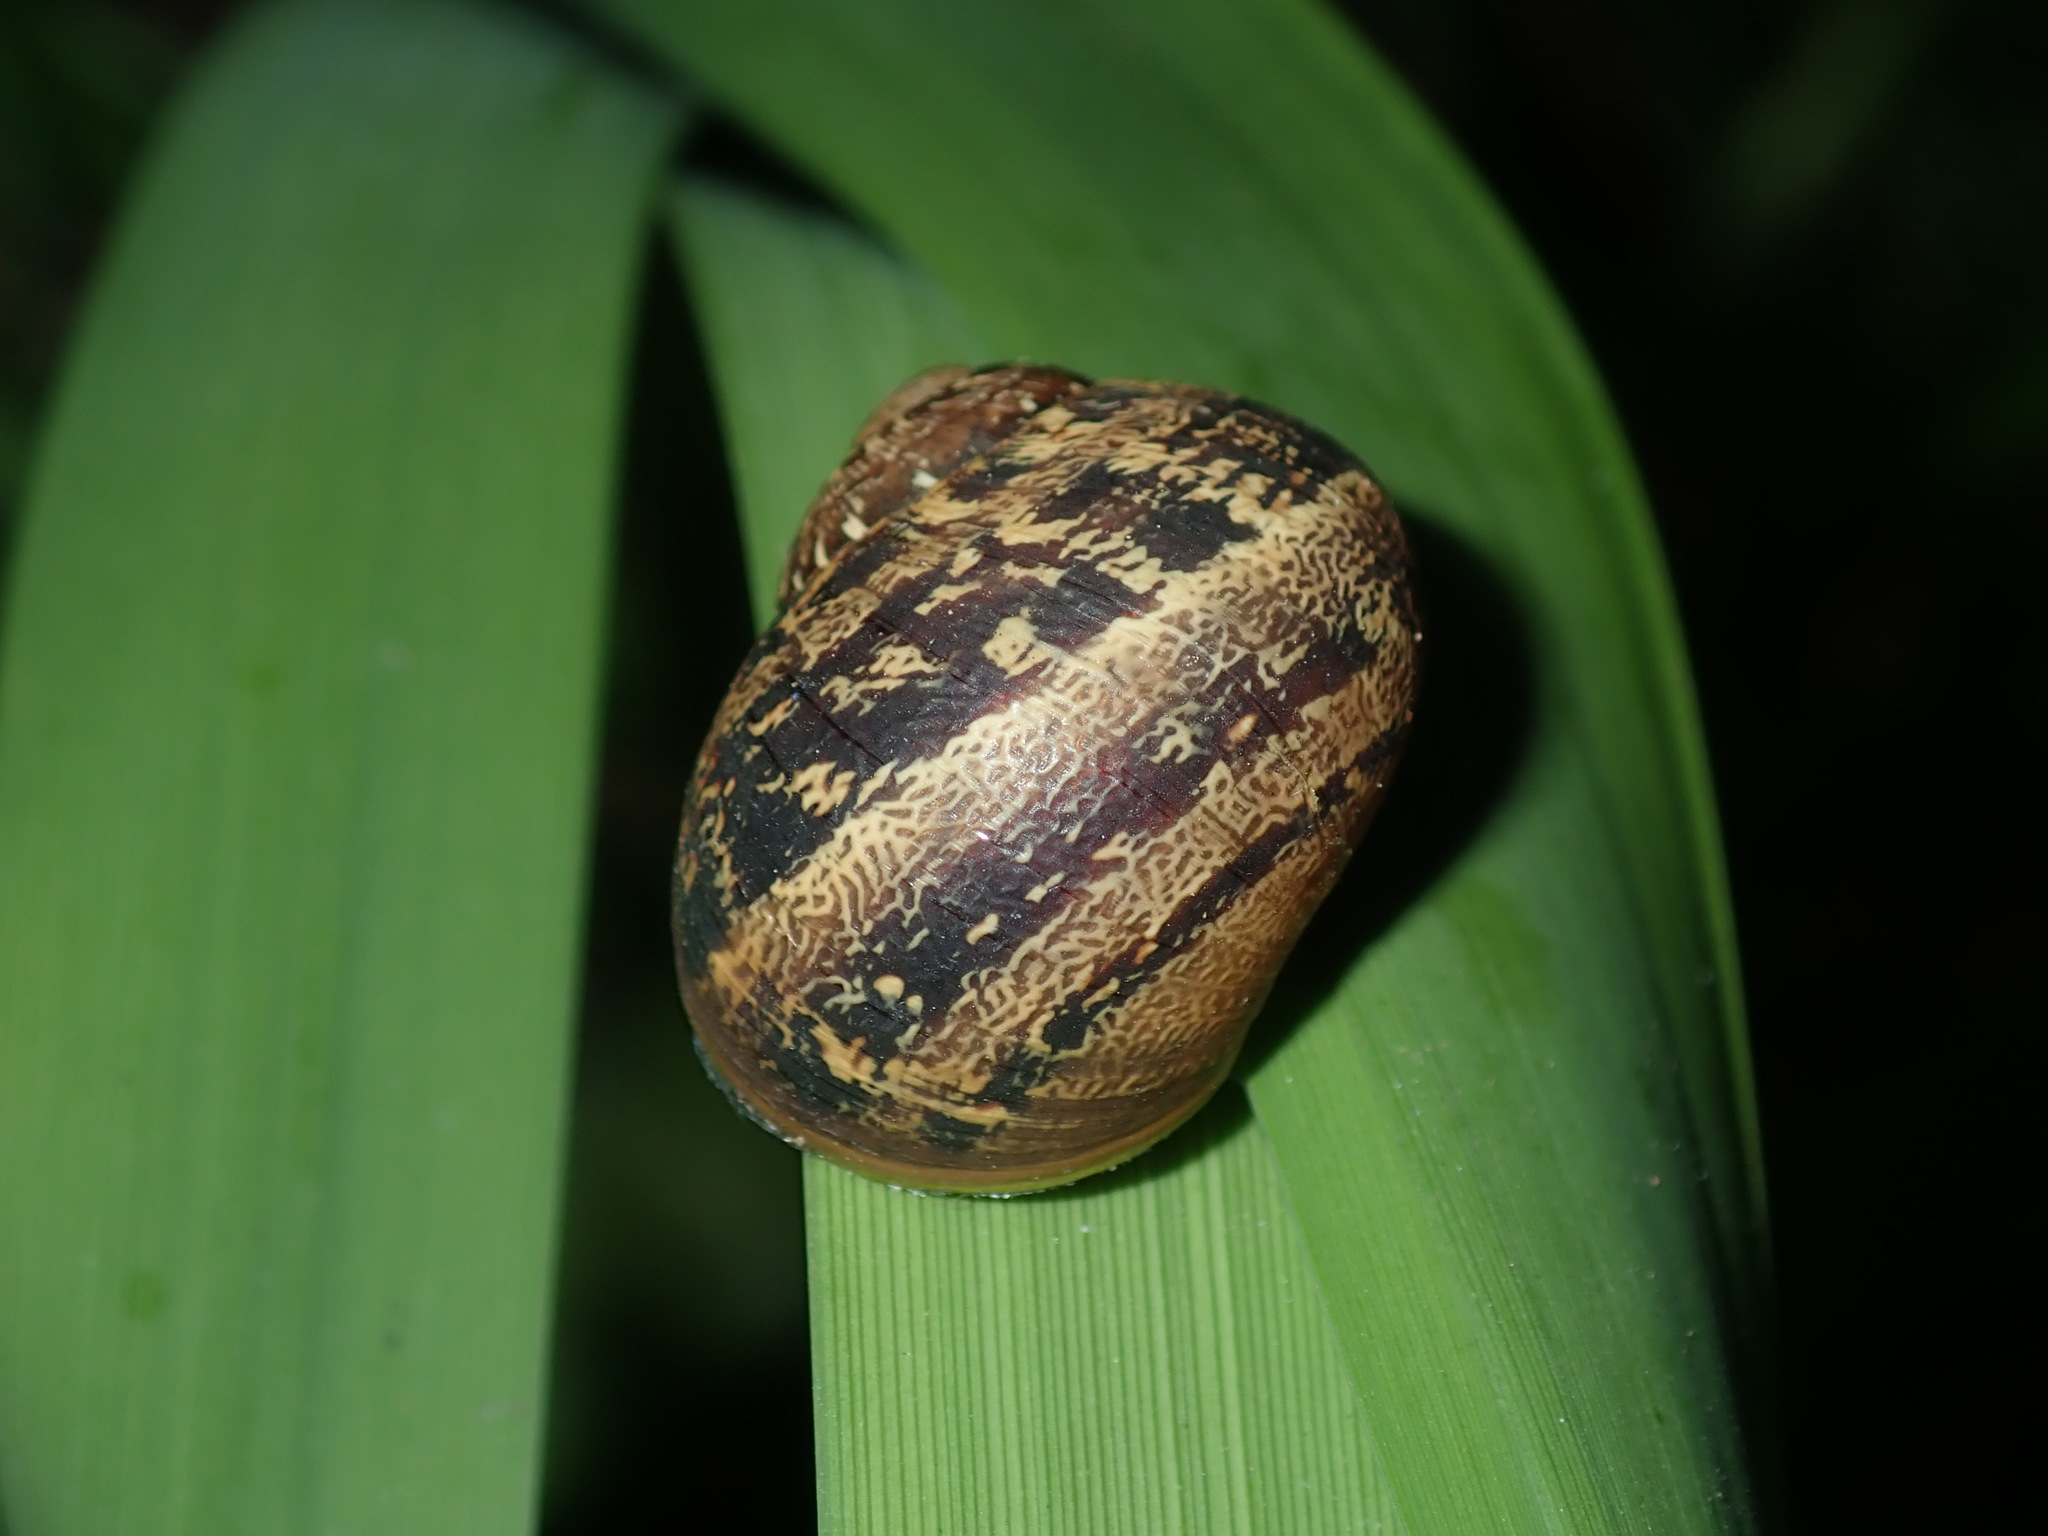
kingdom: Animalia
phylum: Mollusca
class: Gastropoda
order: Stylommatophora
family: Helicidae
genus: Cornu
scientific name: Cornu aspersum
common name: Brown garden snail
